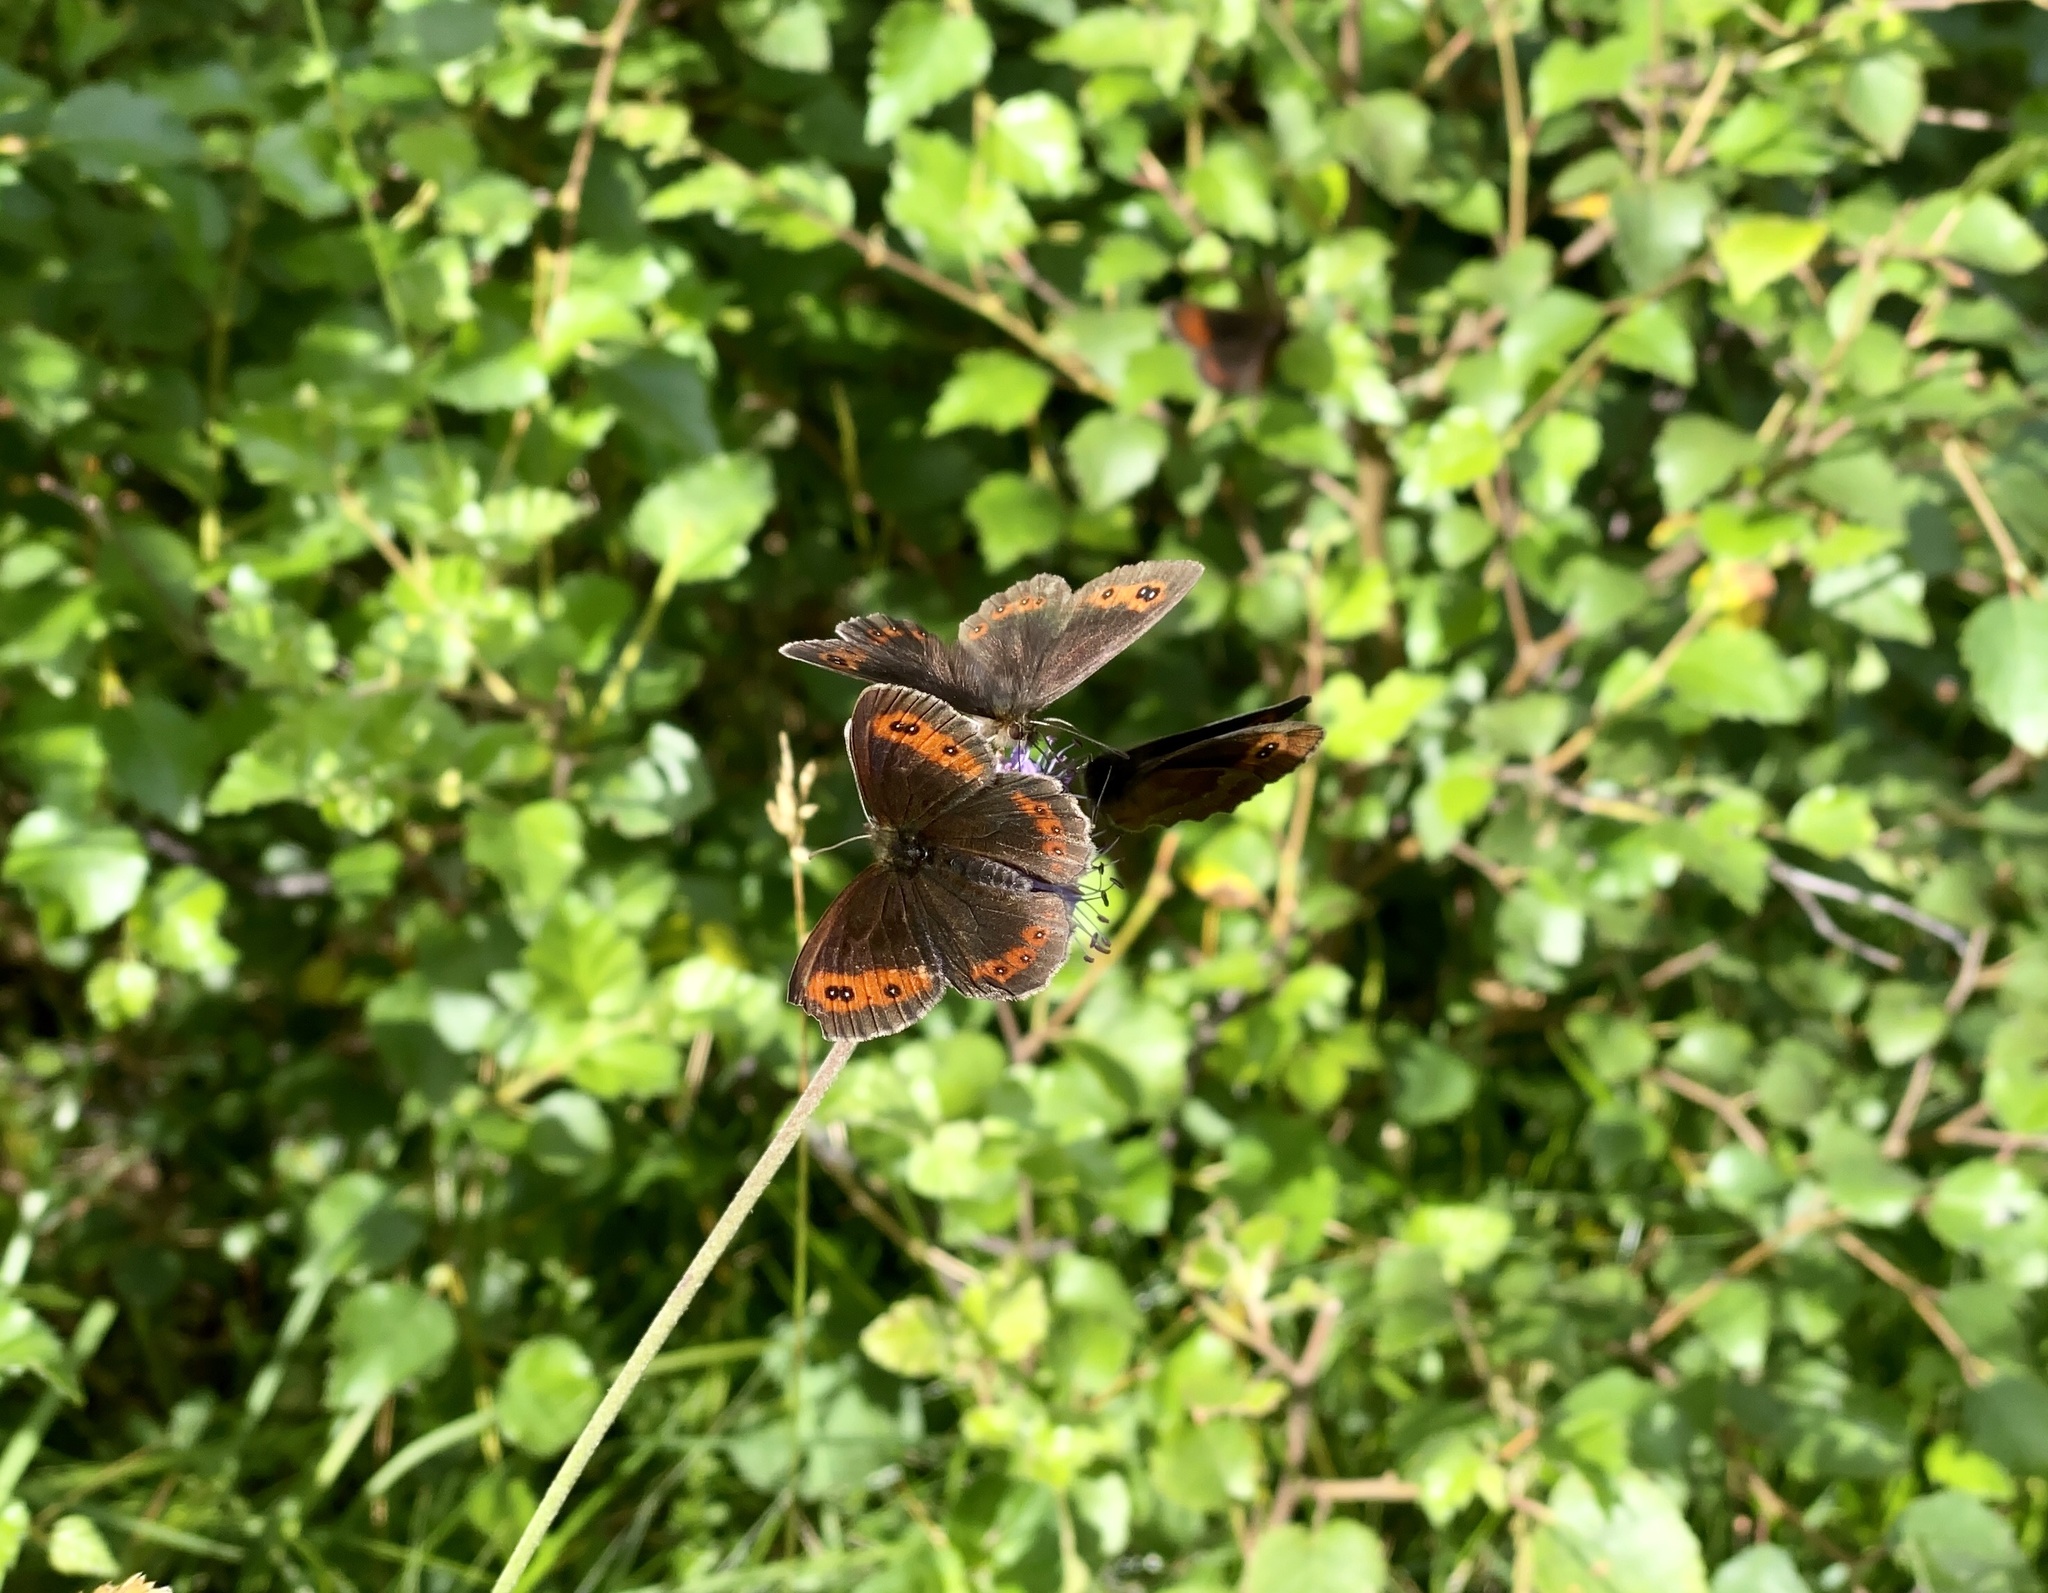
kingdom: Animalia
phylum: Arthropoda
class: Insecta
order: Lepidoptera
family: Nymphalidae
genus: Erebia
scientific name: Erebia aethiops
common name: Scotch argus
